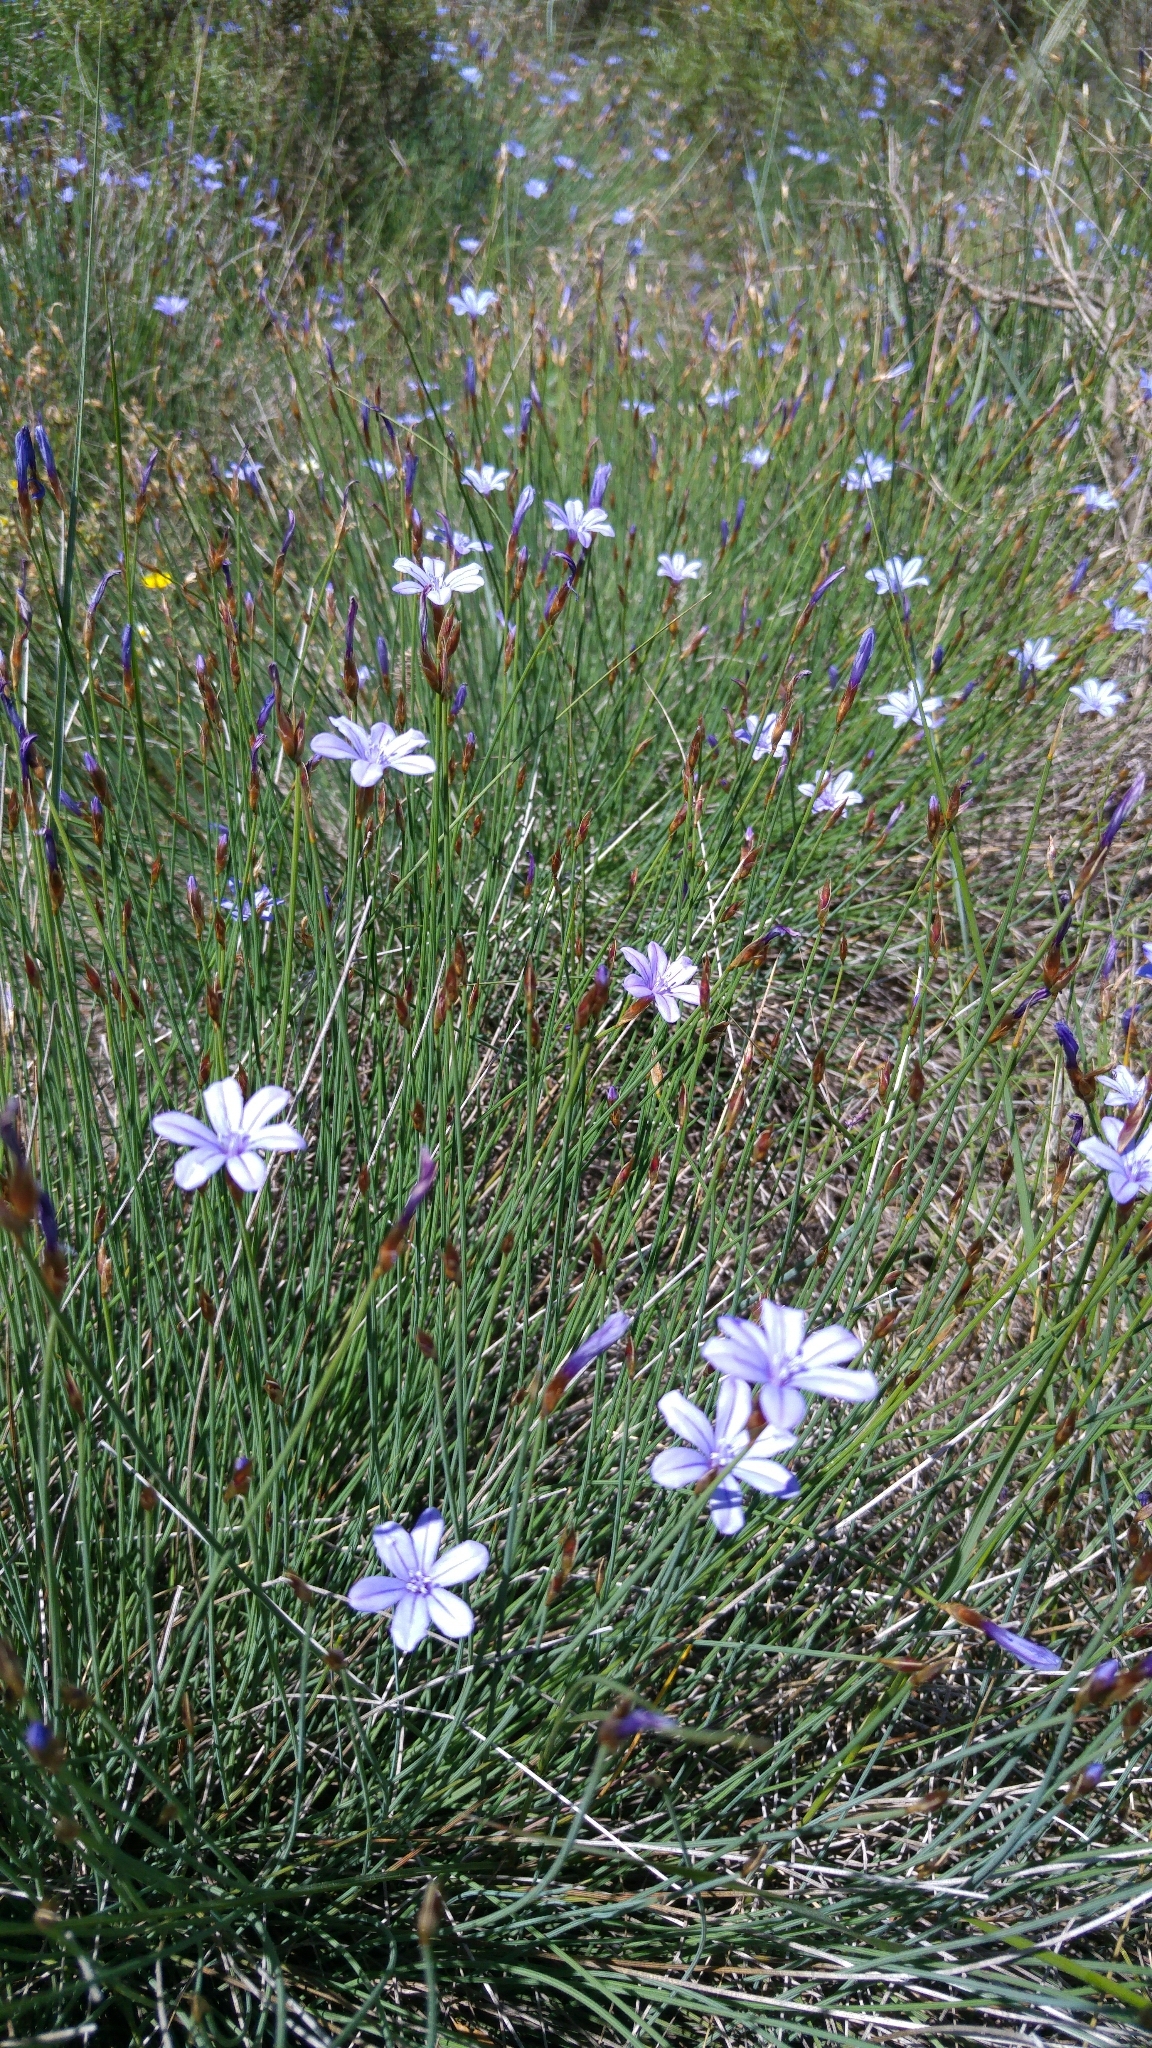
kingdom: Plantae
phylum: Tracheophyta
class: Liliopsida
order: Asparagales
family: Asparagaceae
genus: Aphyllanthes
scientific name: Aphyllanthes monspeliensis
